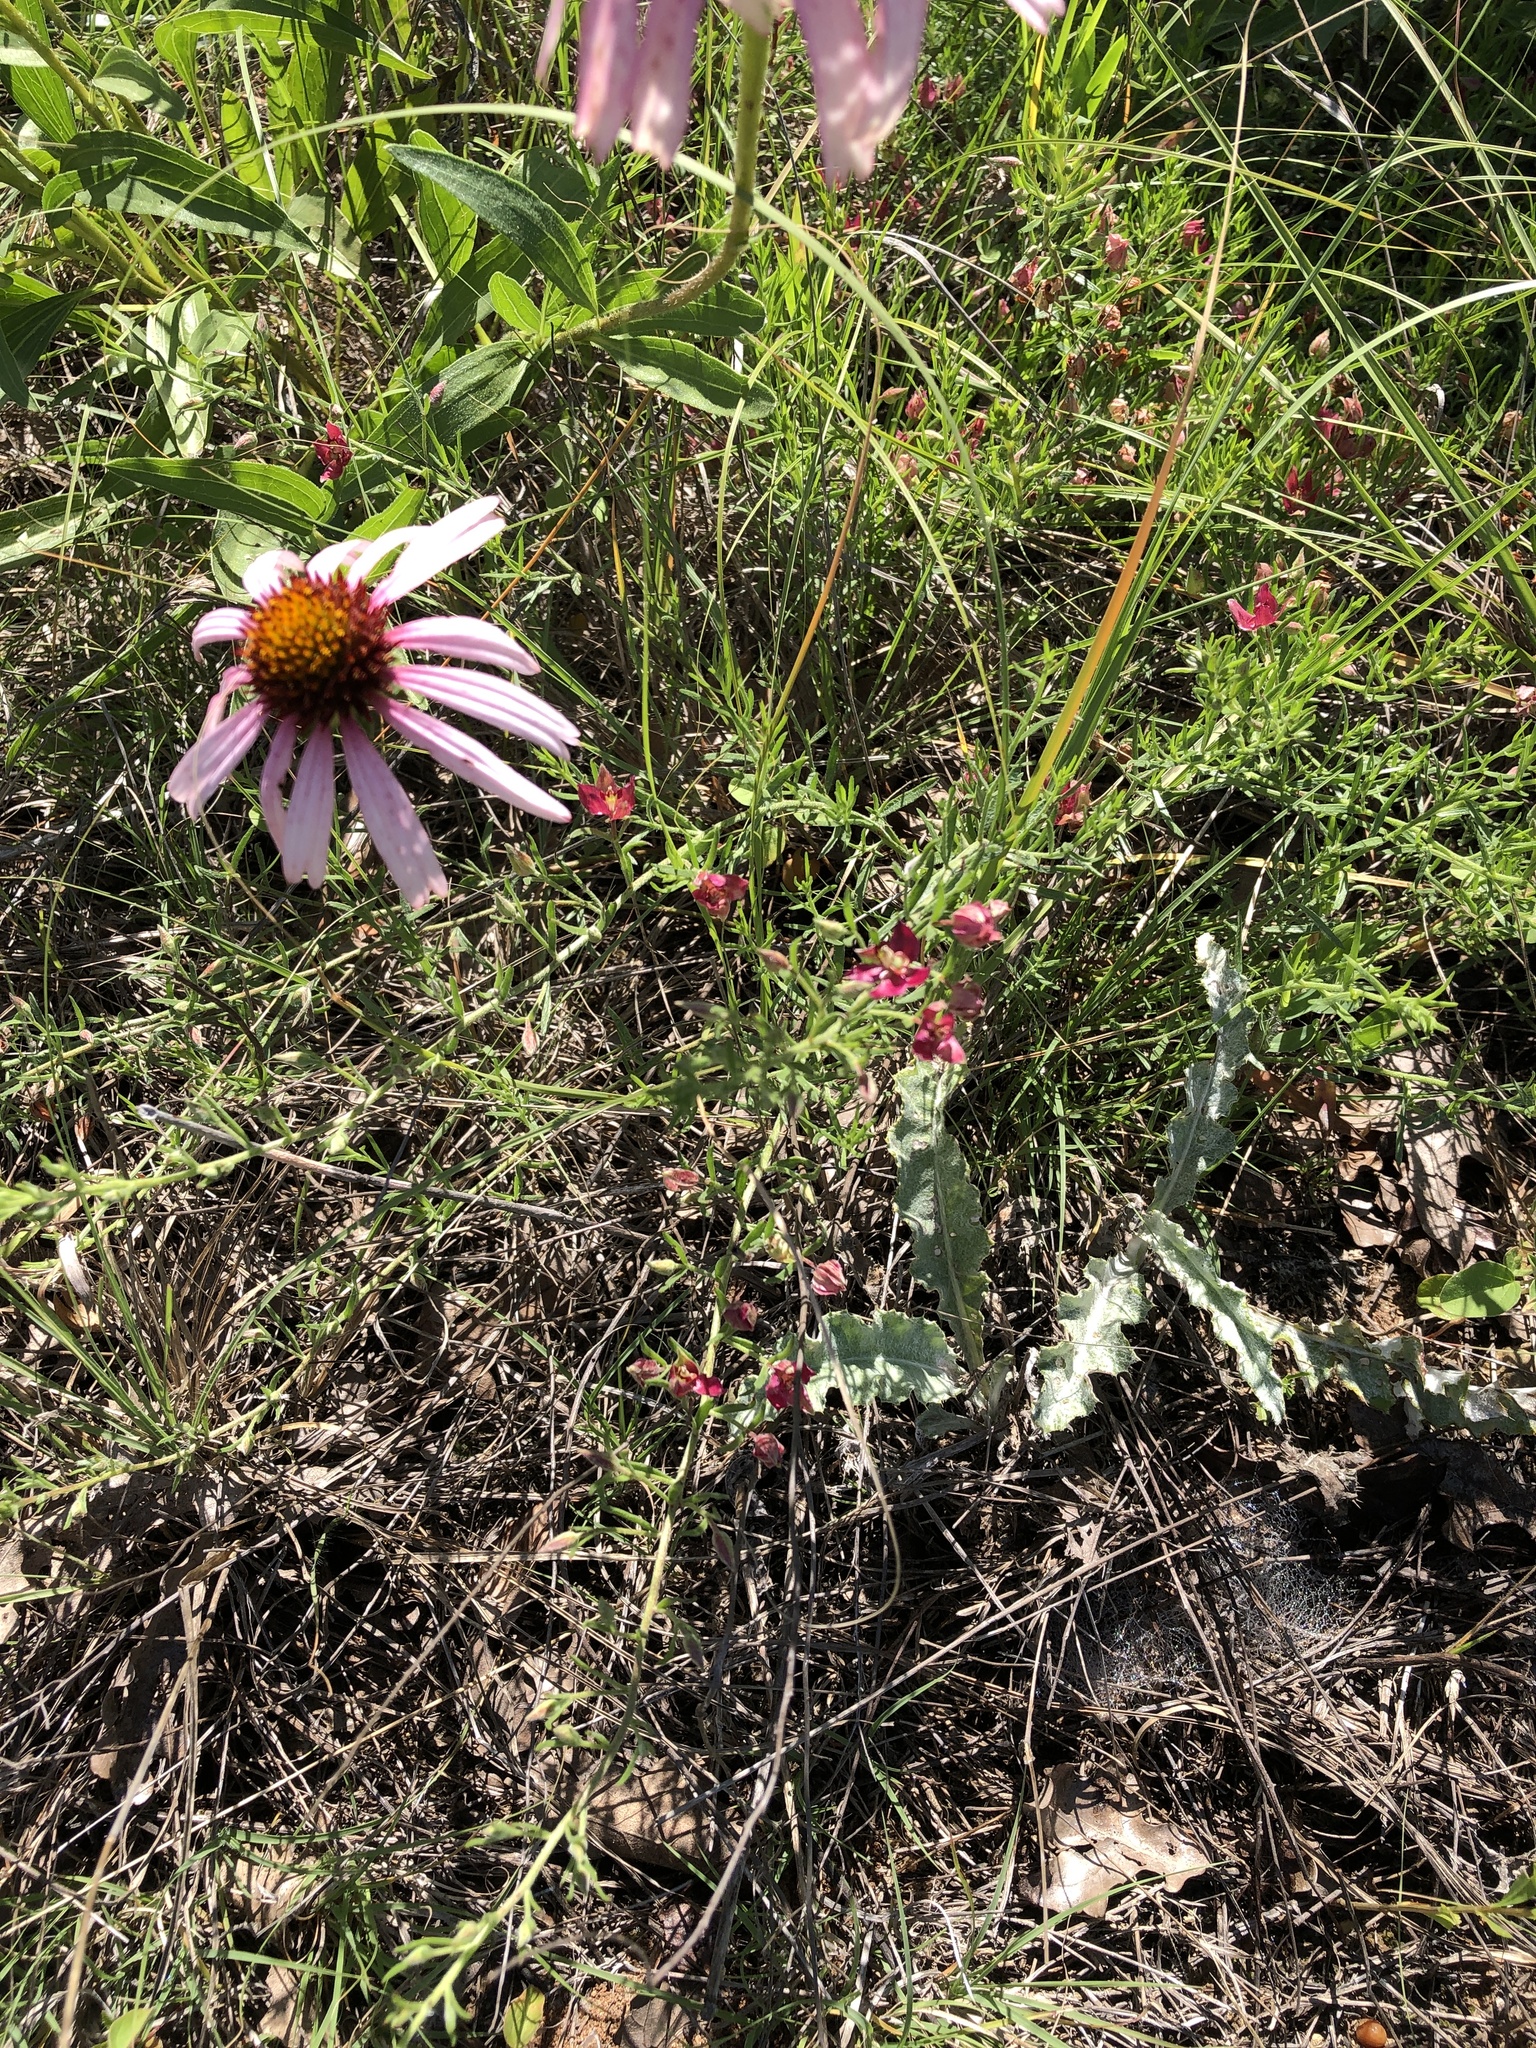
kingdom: Plantae
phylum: Tracheophyta
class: Magnoliopsida
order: Zygophyllales
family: Krameriaceae
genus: Krameria
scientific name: Krameria lanceolata
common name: Ratany
